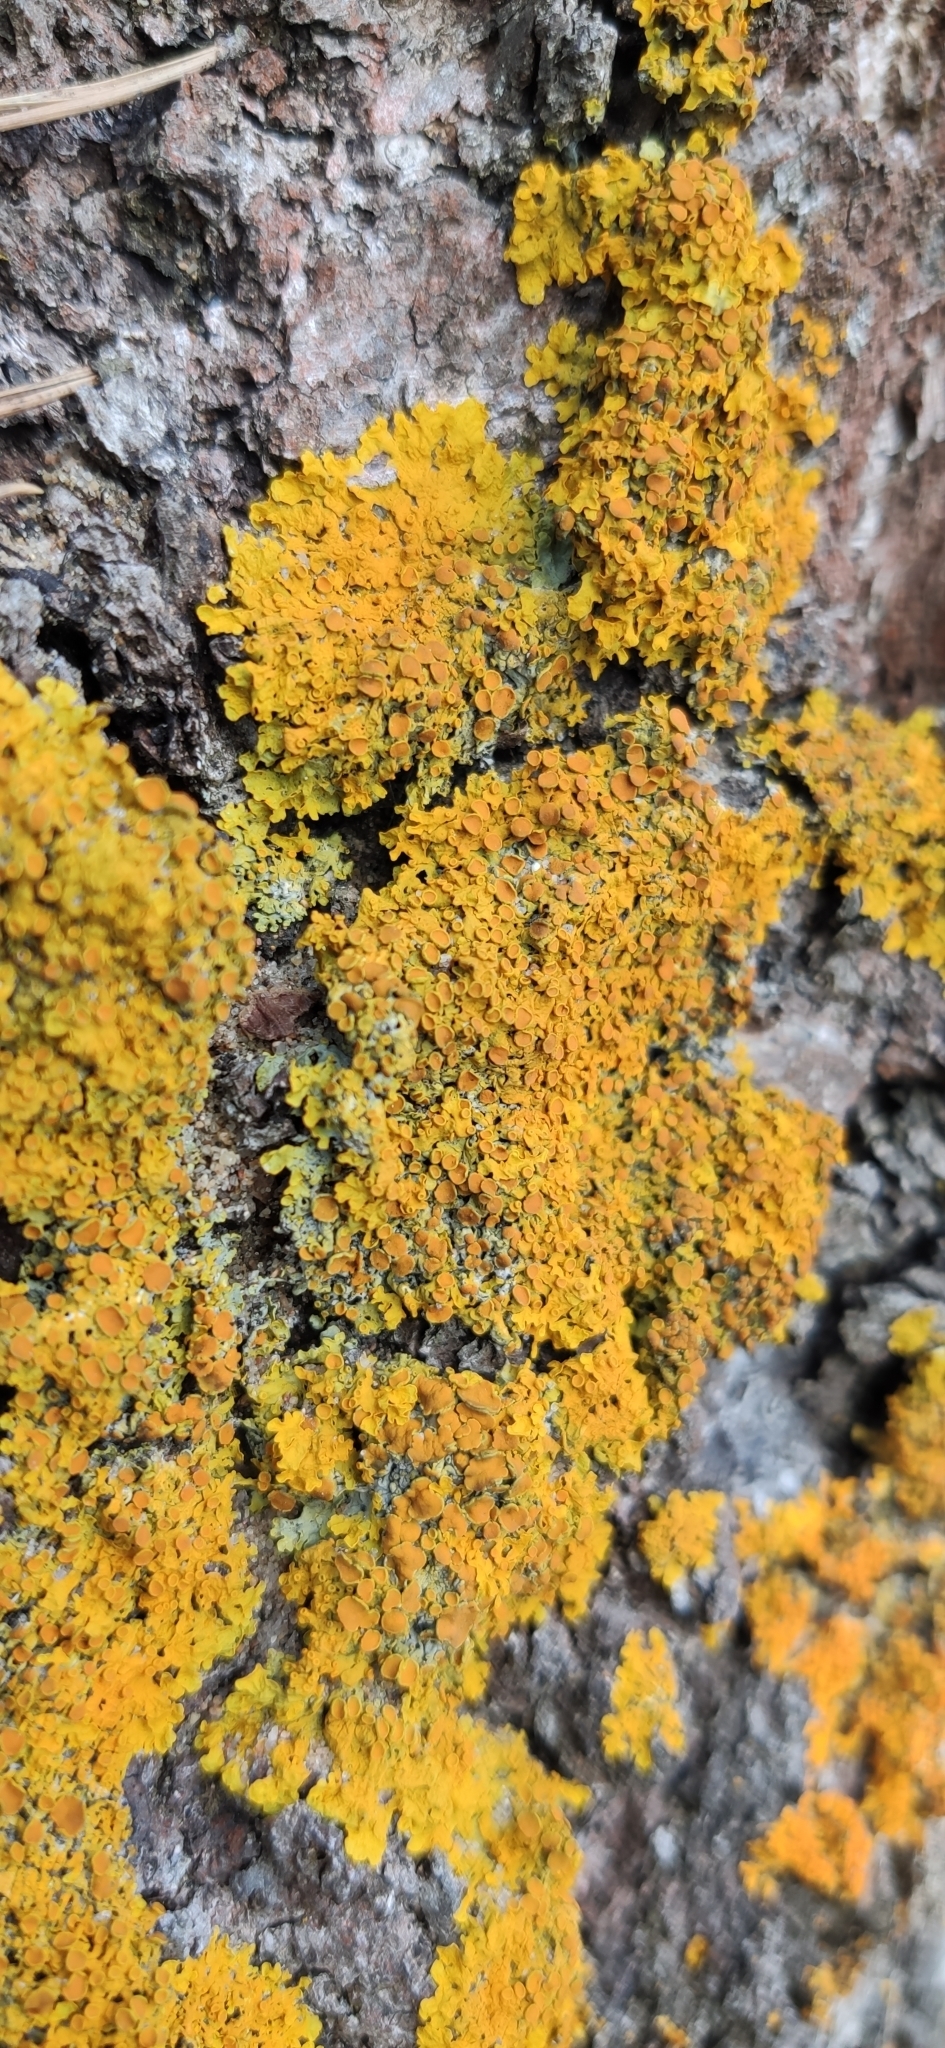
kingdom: Fungi
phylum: Ascomycota
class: Lecanoromycetes
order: Teloschistales
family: Teloschistaceae
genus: Xanthoria
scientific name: Xanthoria parietina
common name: Common orange lichen
